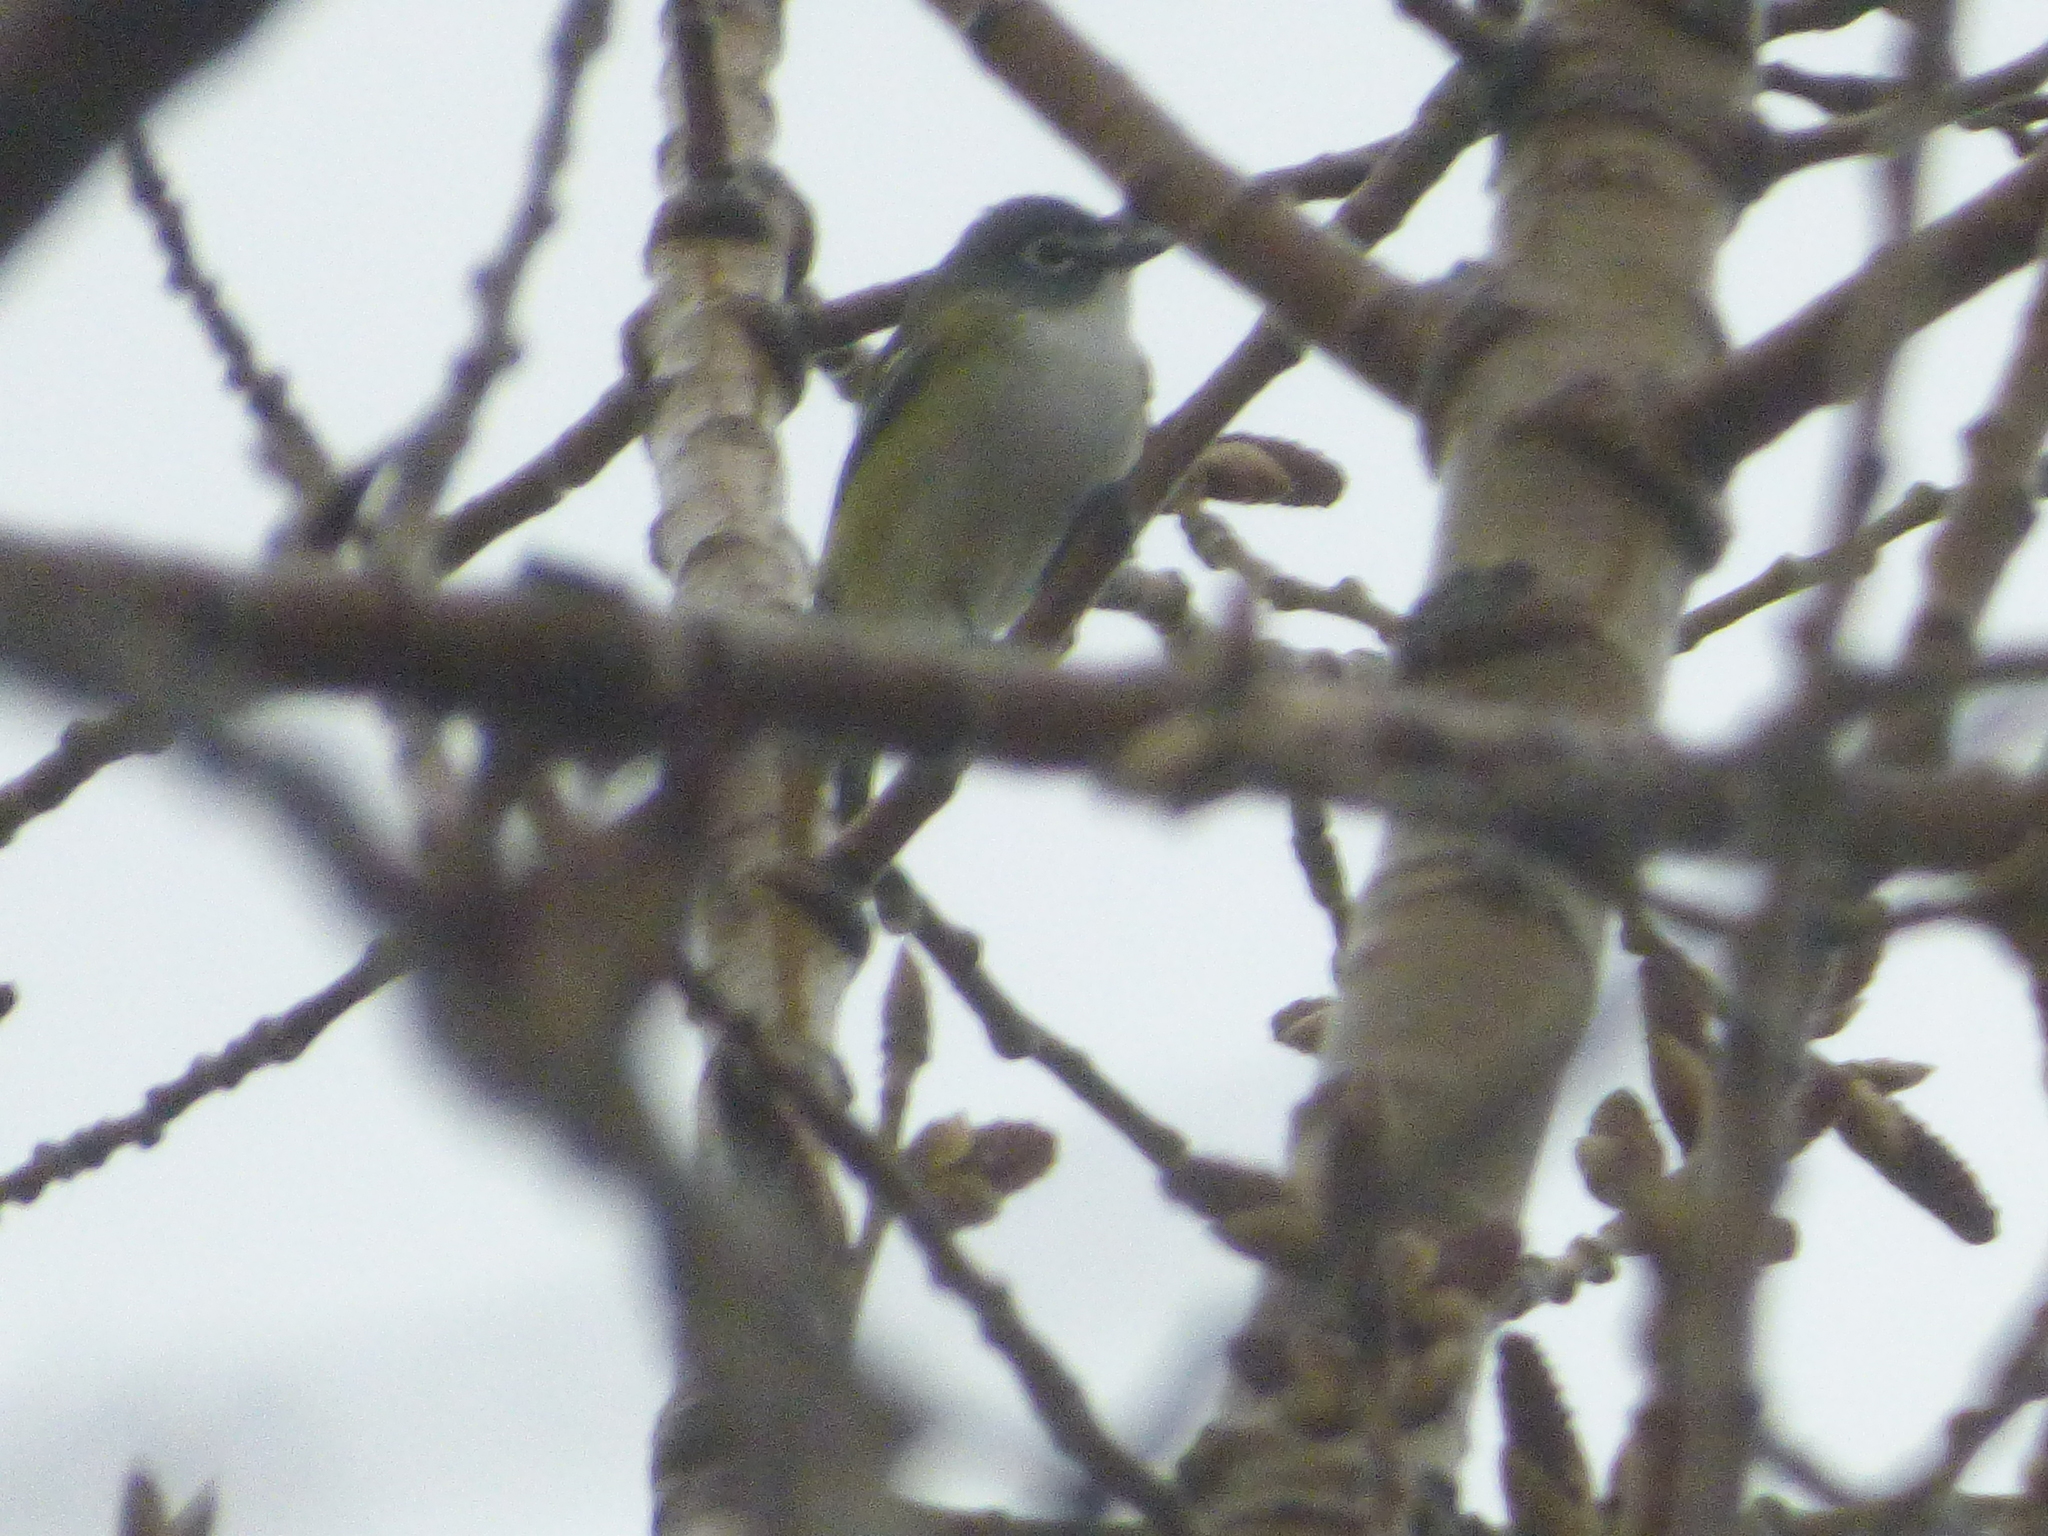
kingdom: Animalia
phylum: Chordata
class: Aves
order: Passeriformes
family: Vireonidae
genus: Vireo
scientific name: Vireo solitarius
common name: Blue-headed vireo
